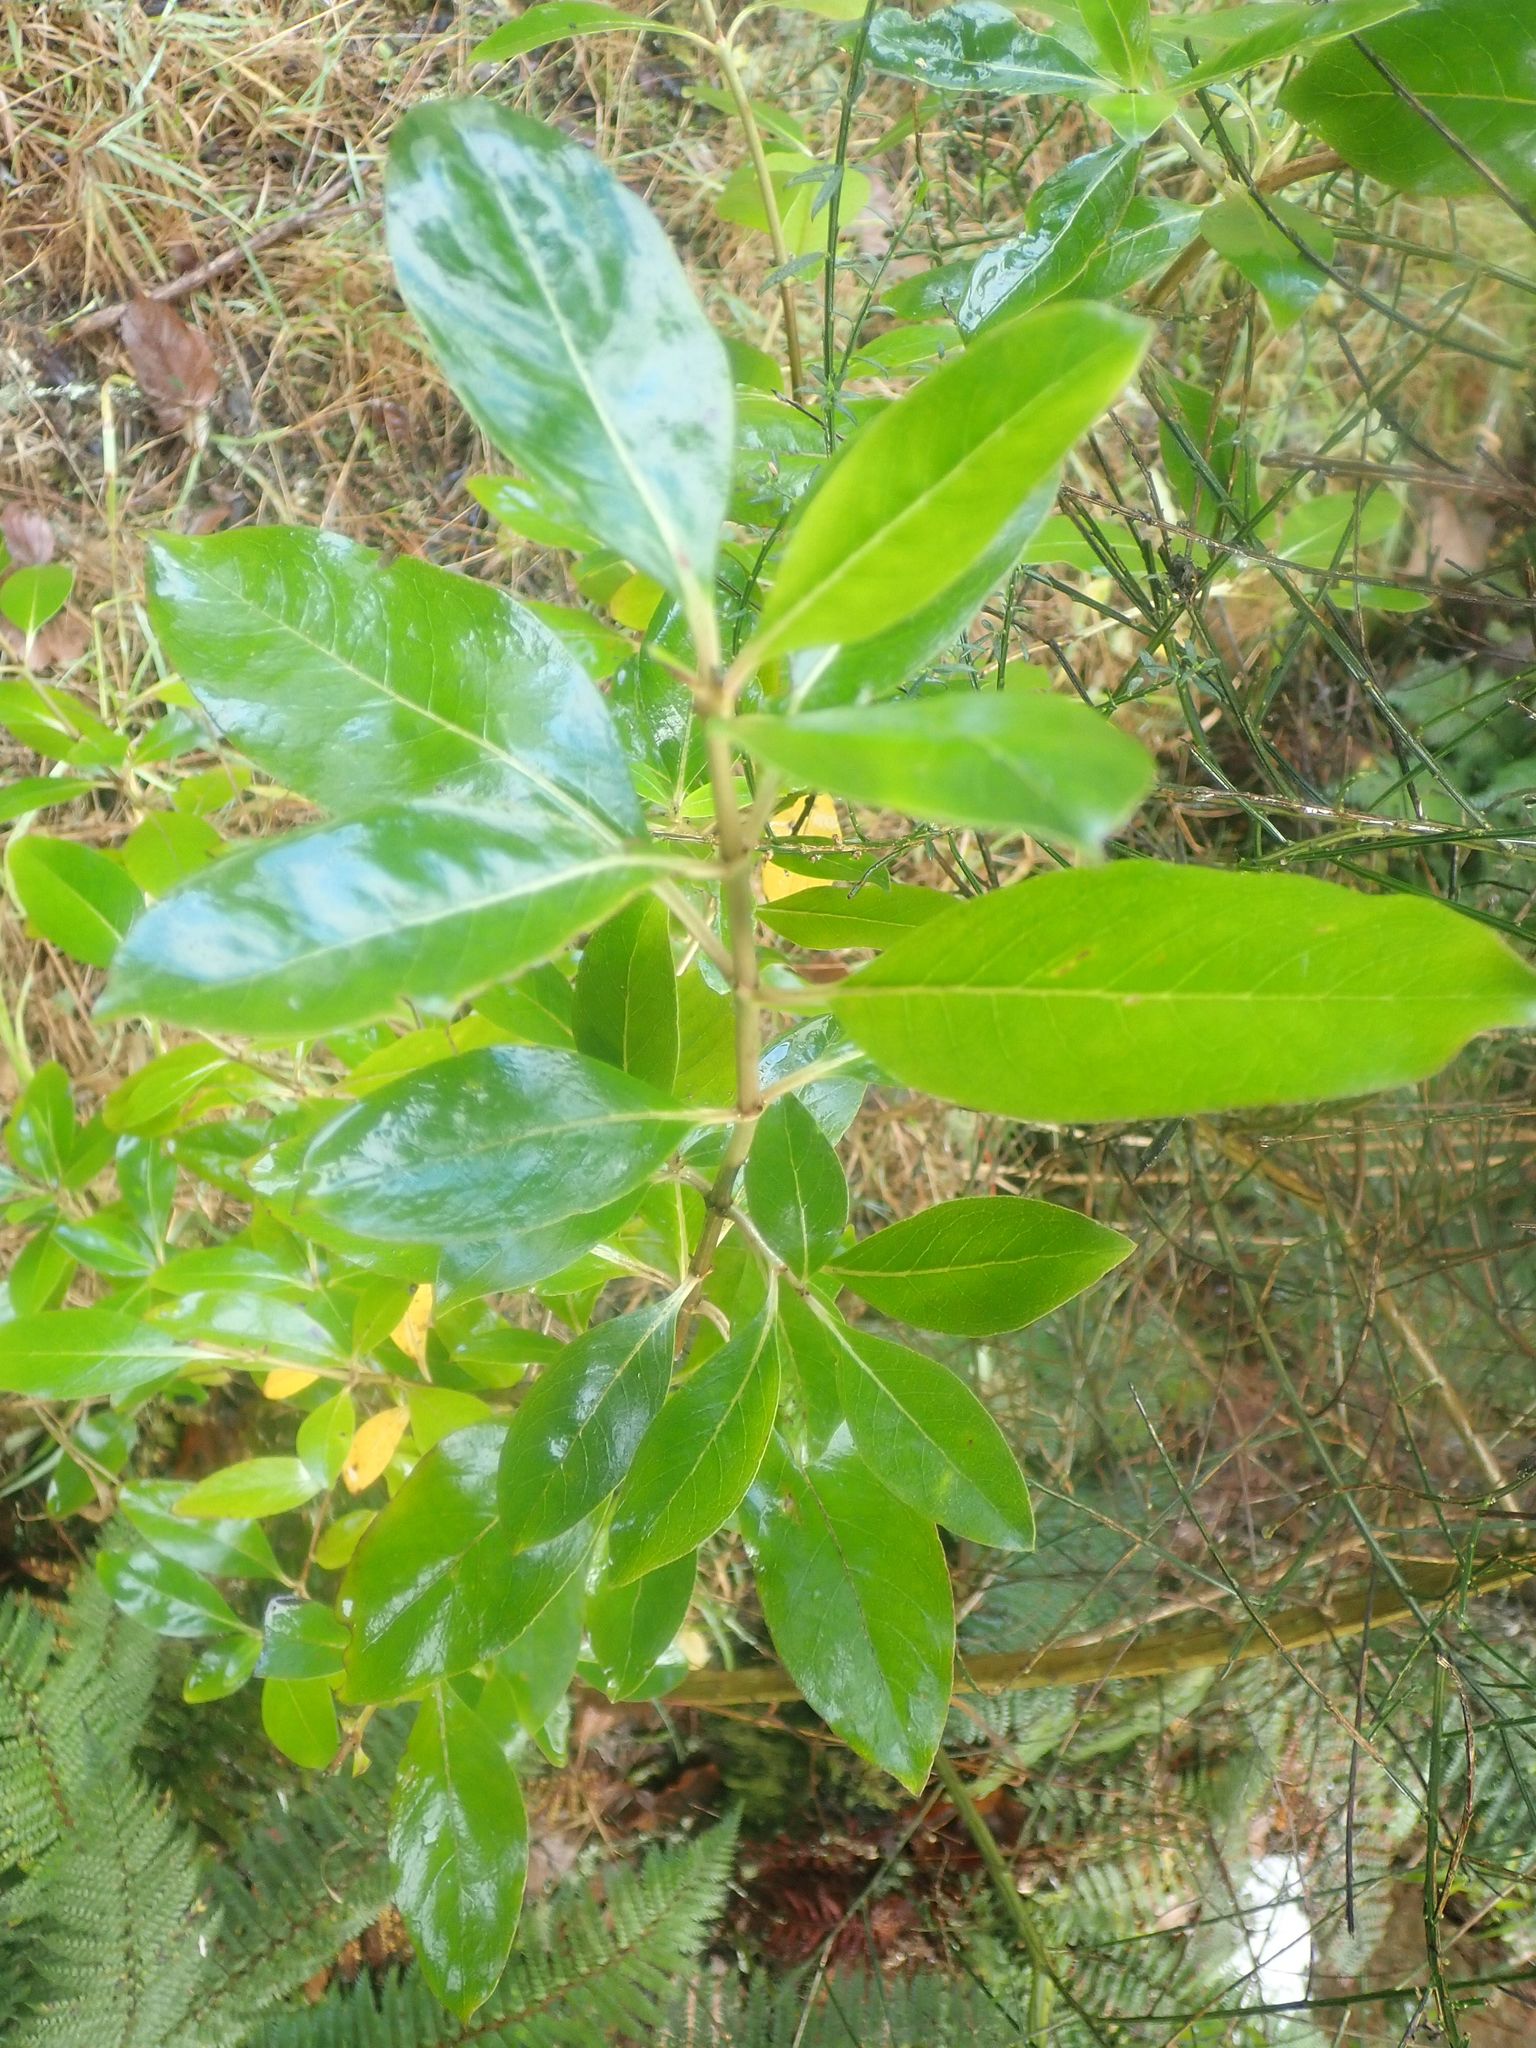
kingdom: Plantae
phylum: Tracheophyta
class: Magnoliopsida
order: Gentianales
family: Rubiaceae
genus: Coprosma
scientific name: Coprosma robusta
